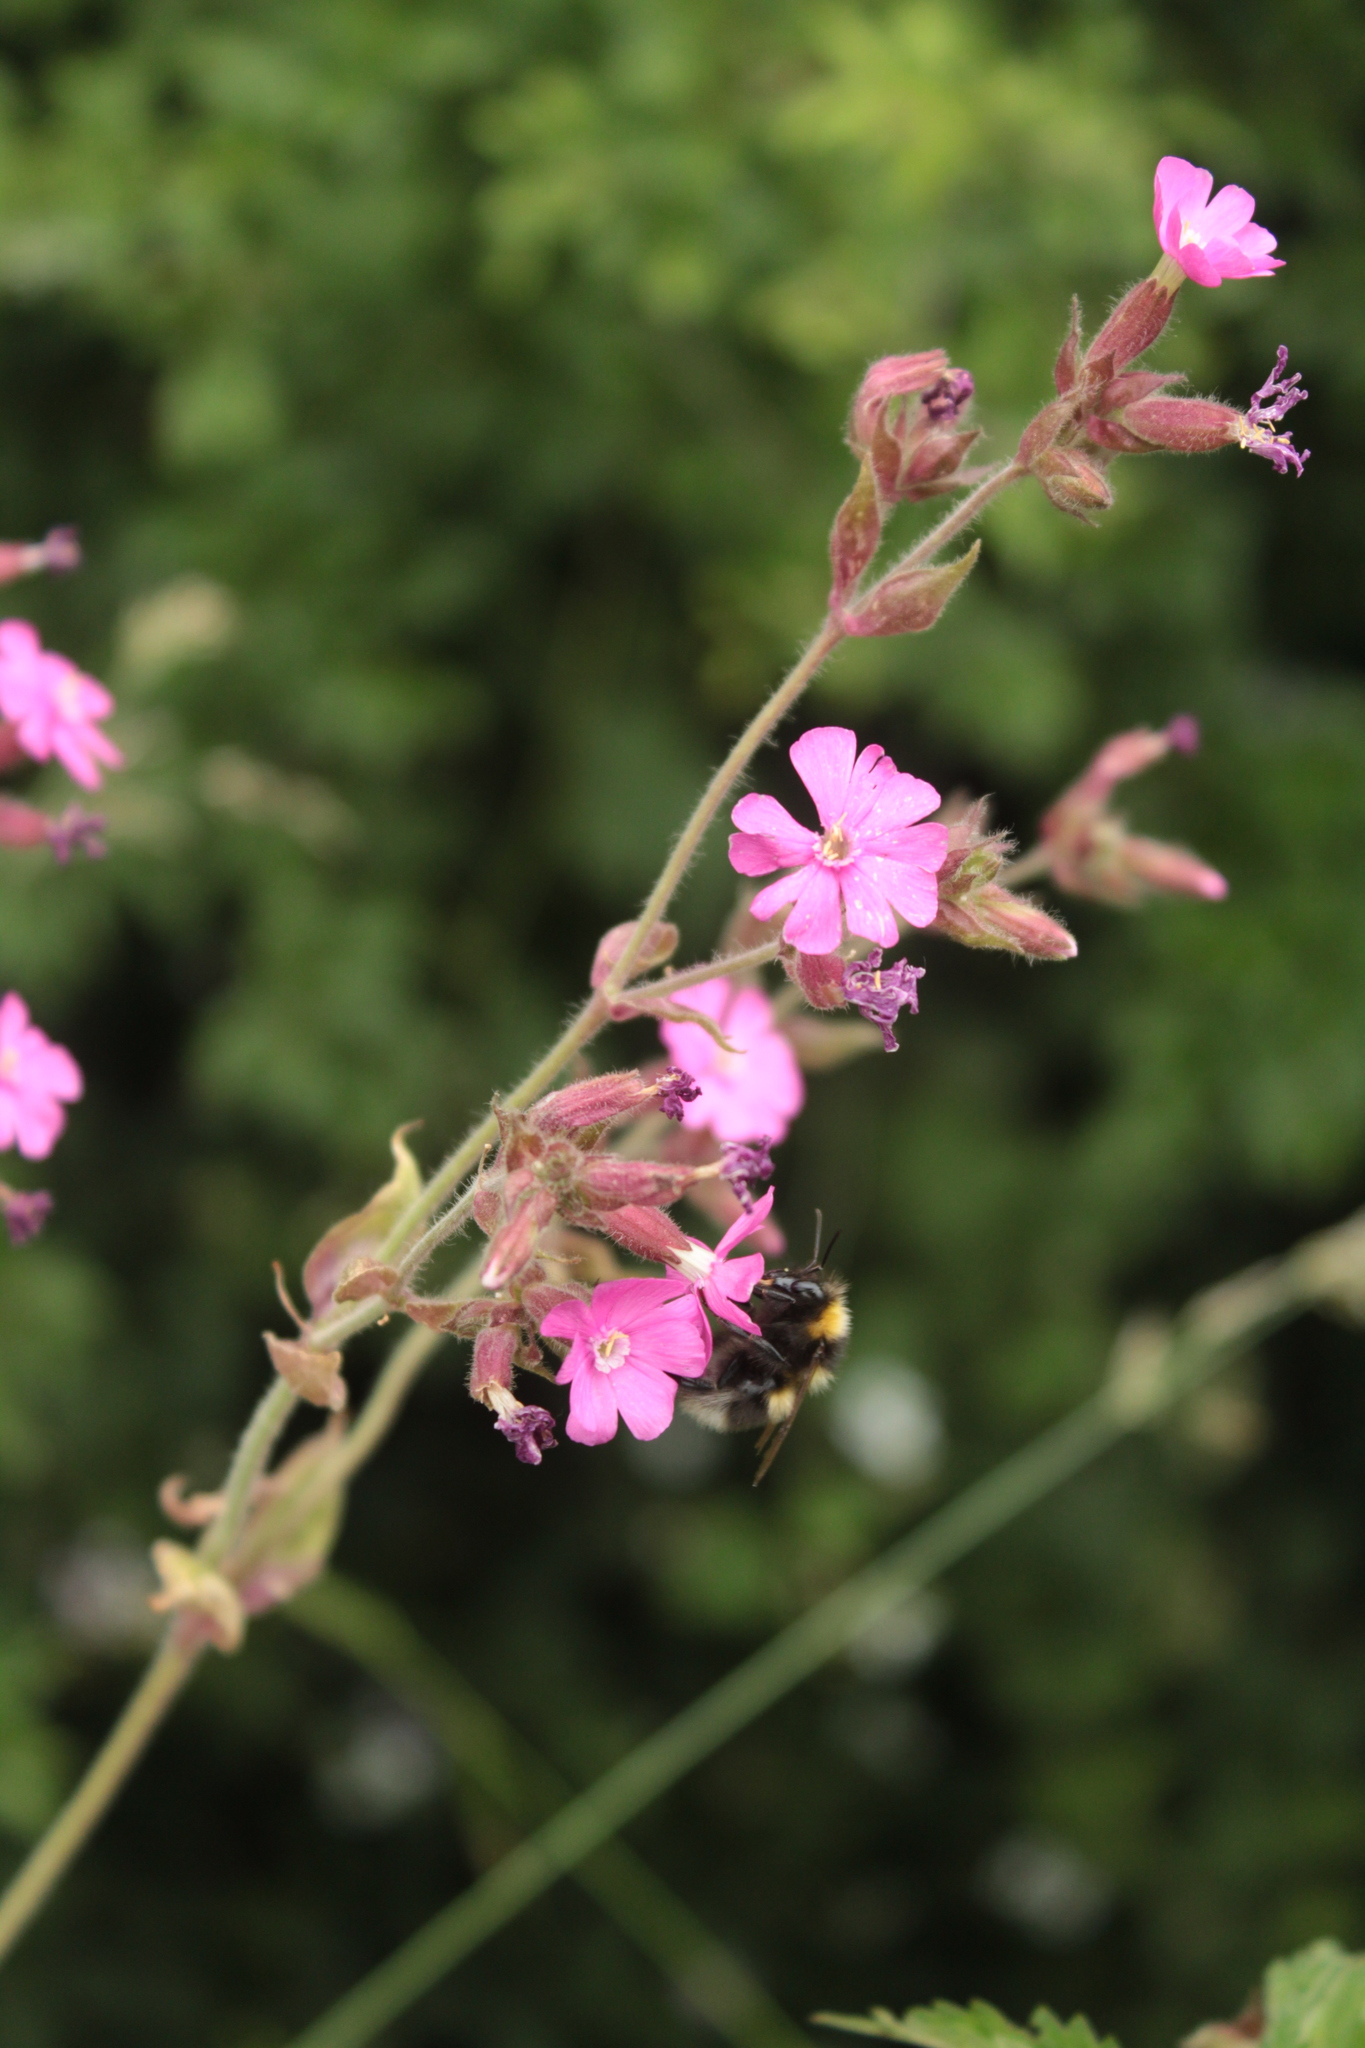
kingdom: Plantae
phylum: Tracheophyta
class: Magnoliopsida
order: Caryophyllales
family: Caryophyllaceae
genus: Silene
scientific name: Silene dioica
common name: Red campion
